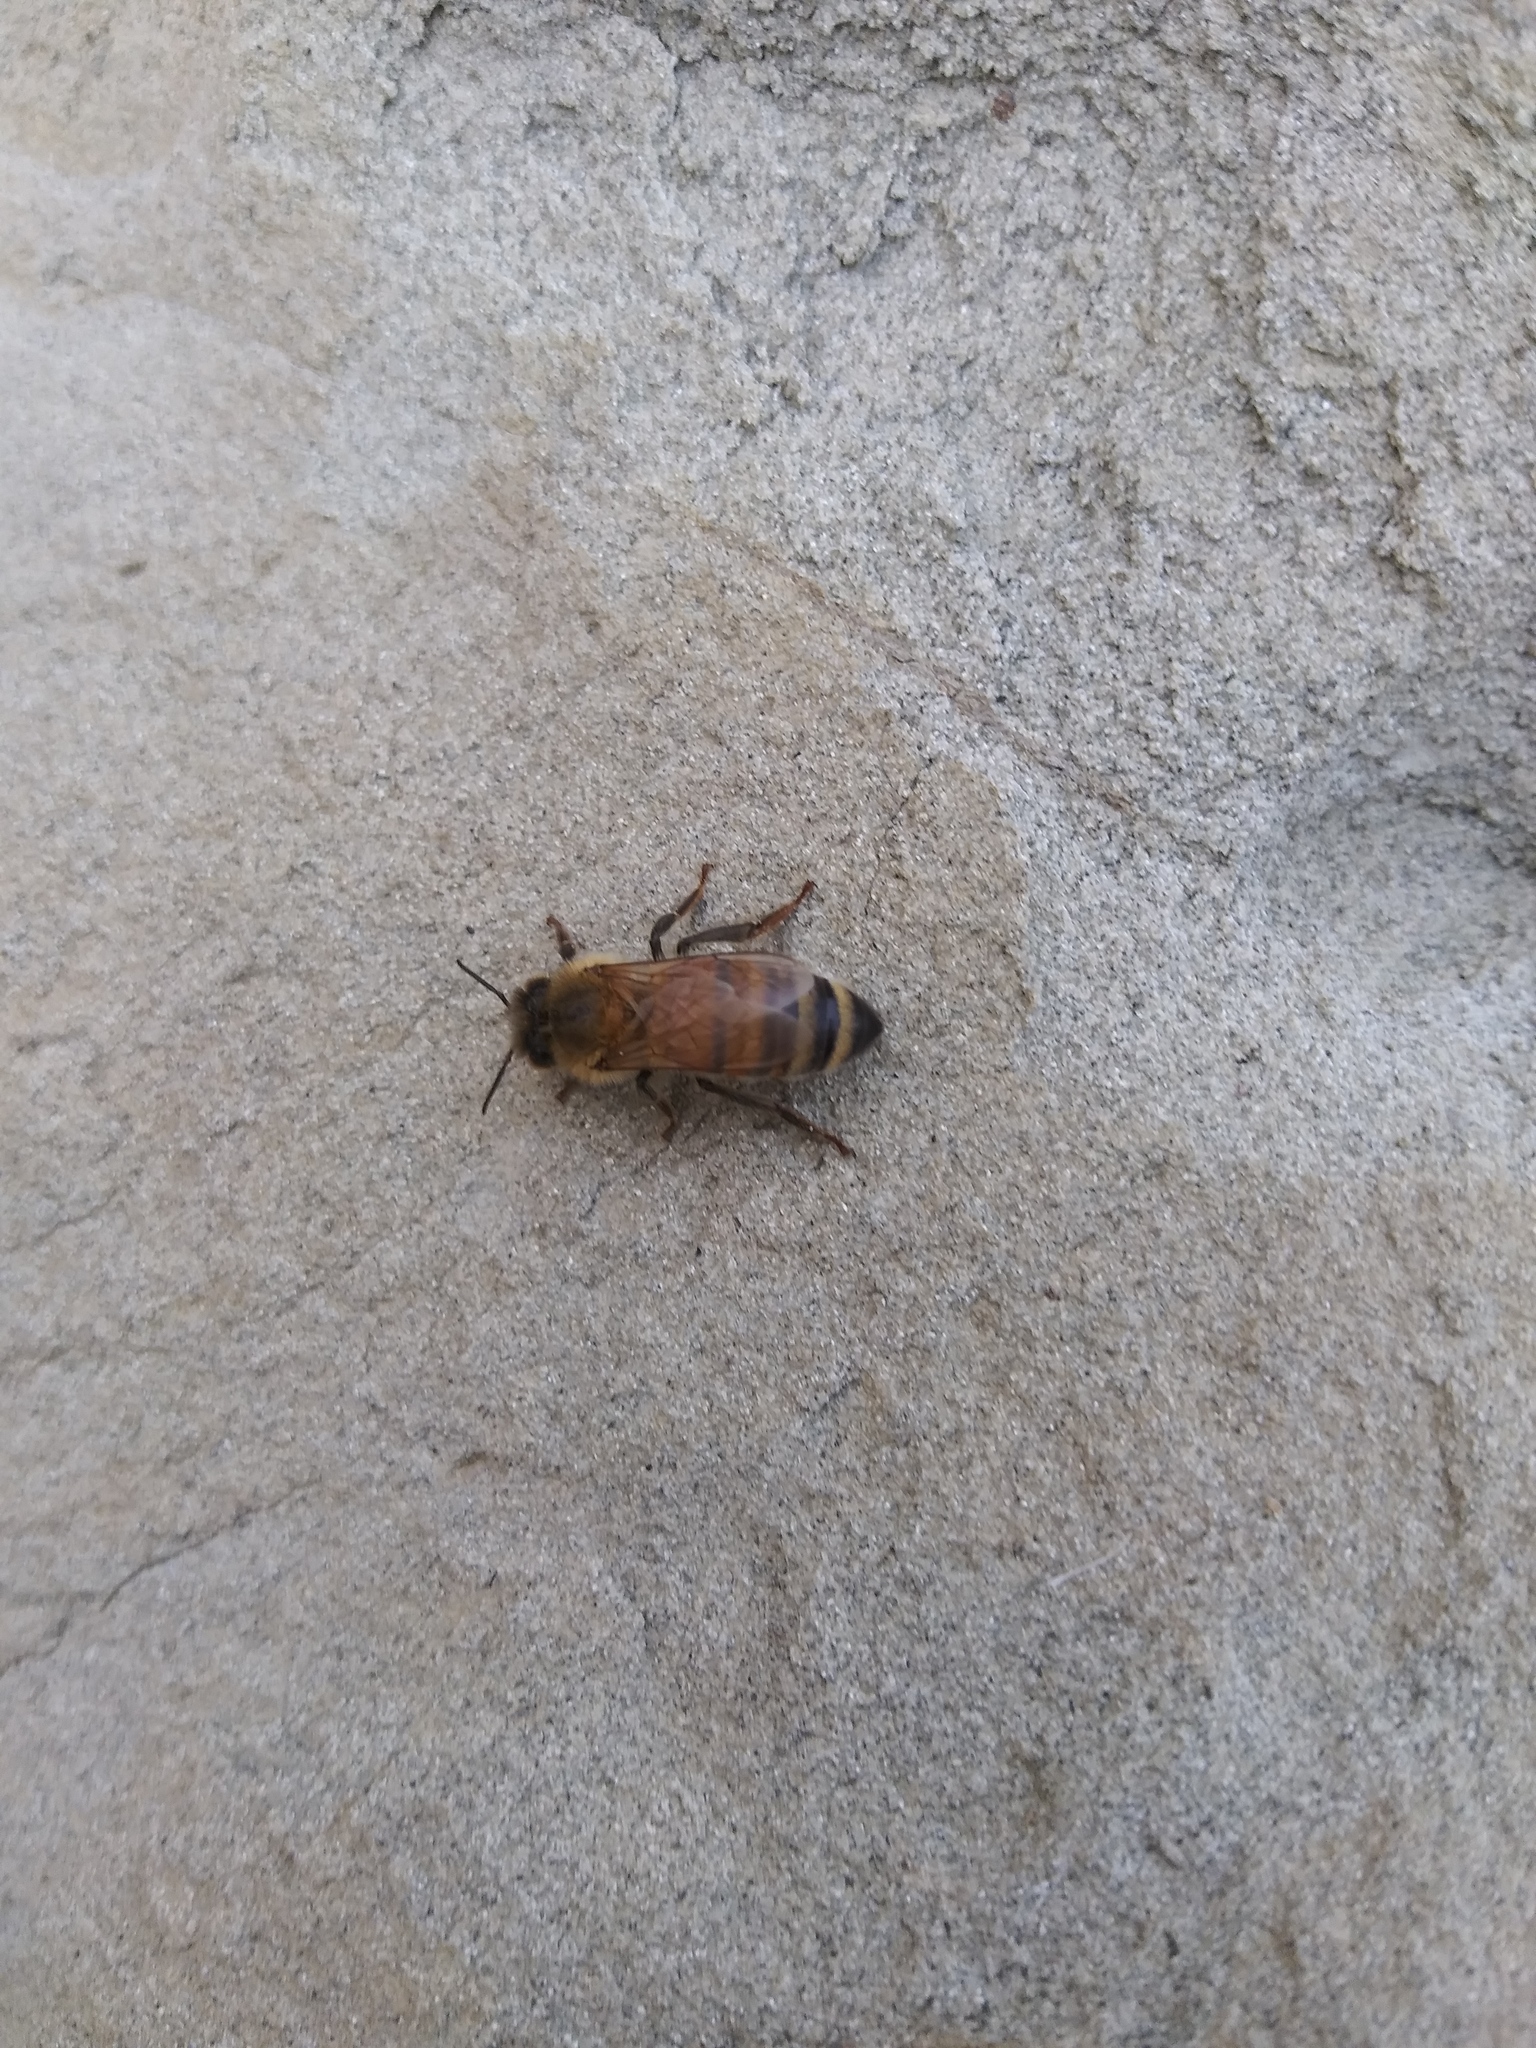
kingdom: Animalia
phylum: Arthropoda
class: Insecta
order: Hymenoptera
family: Apidae
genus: Apis
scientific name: Apis mellifera
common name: Honey bee
